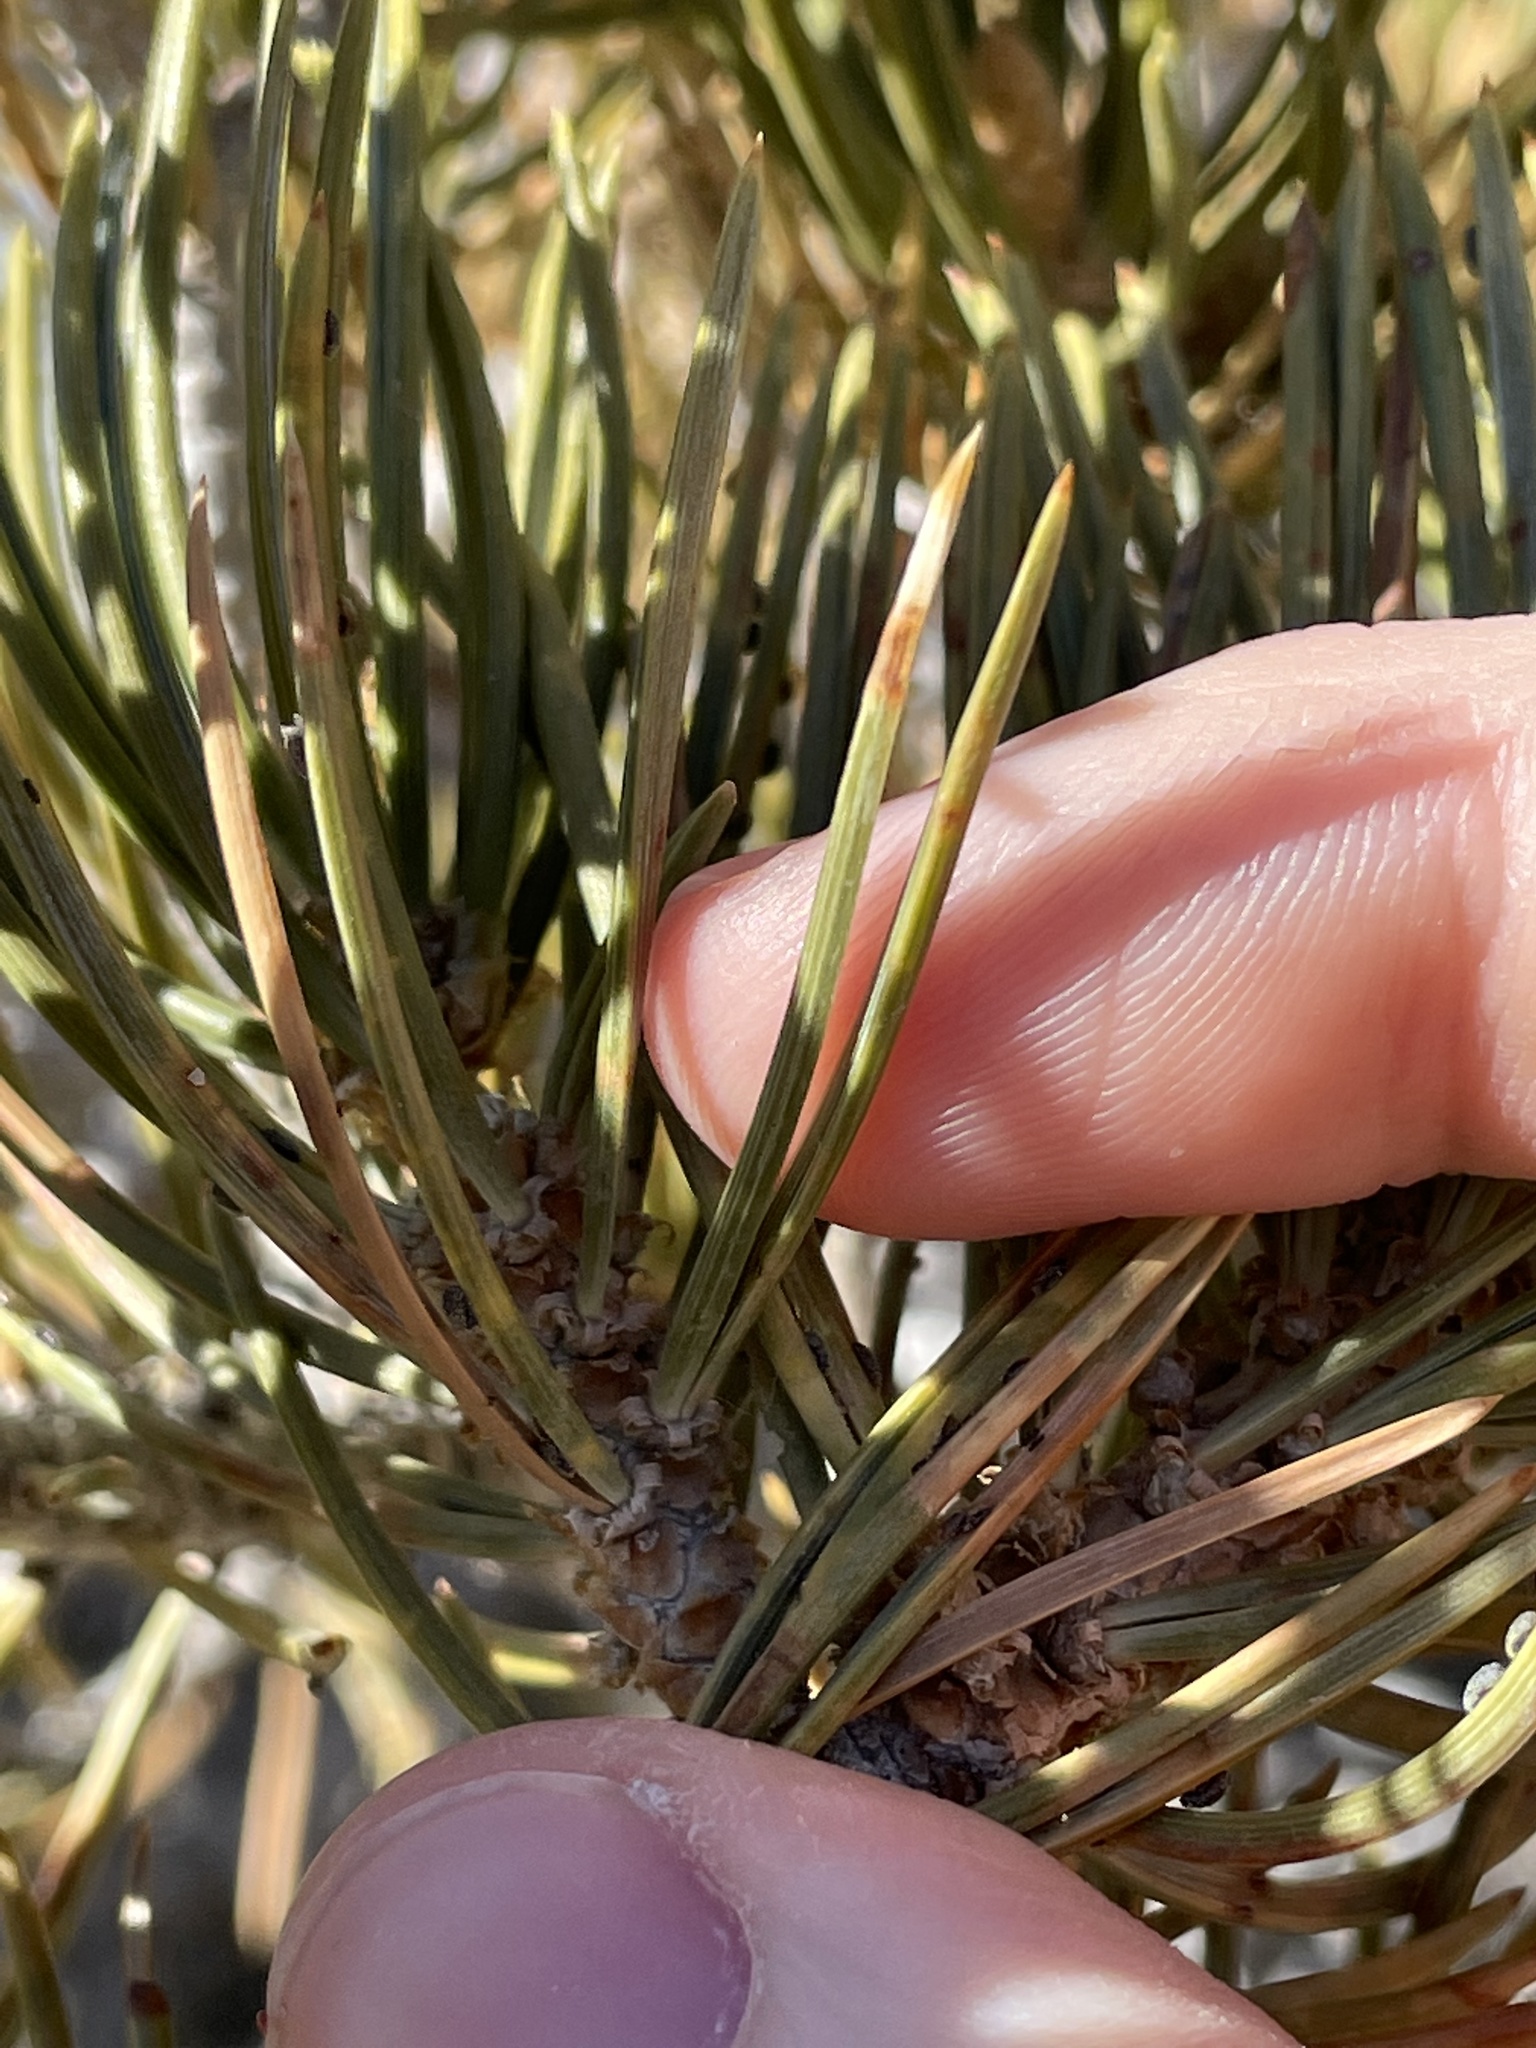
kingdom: Plantae
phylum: Tracheophyta
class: Pinopsida
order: Pinales
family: Pinaceae
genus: Pinus
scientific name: Pinus edulis
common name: Colorado pinyon
